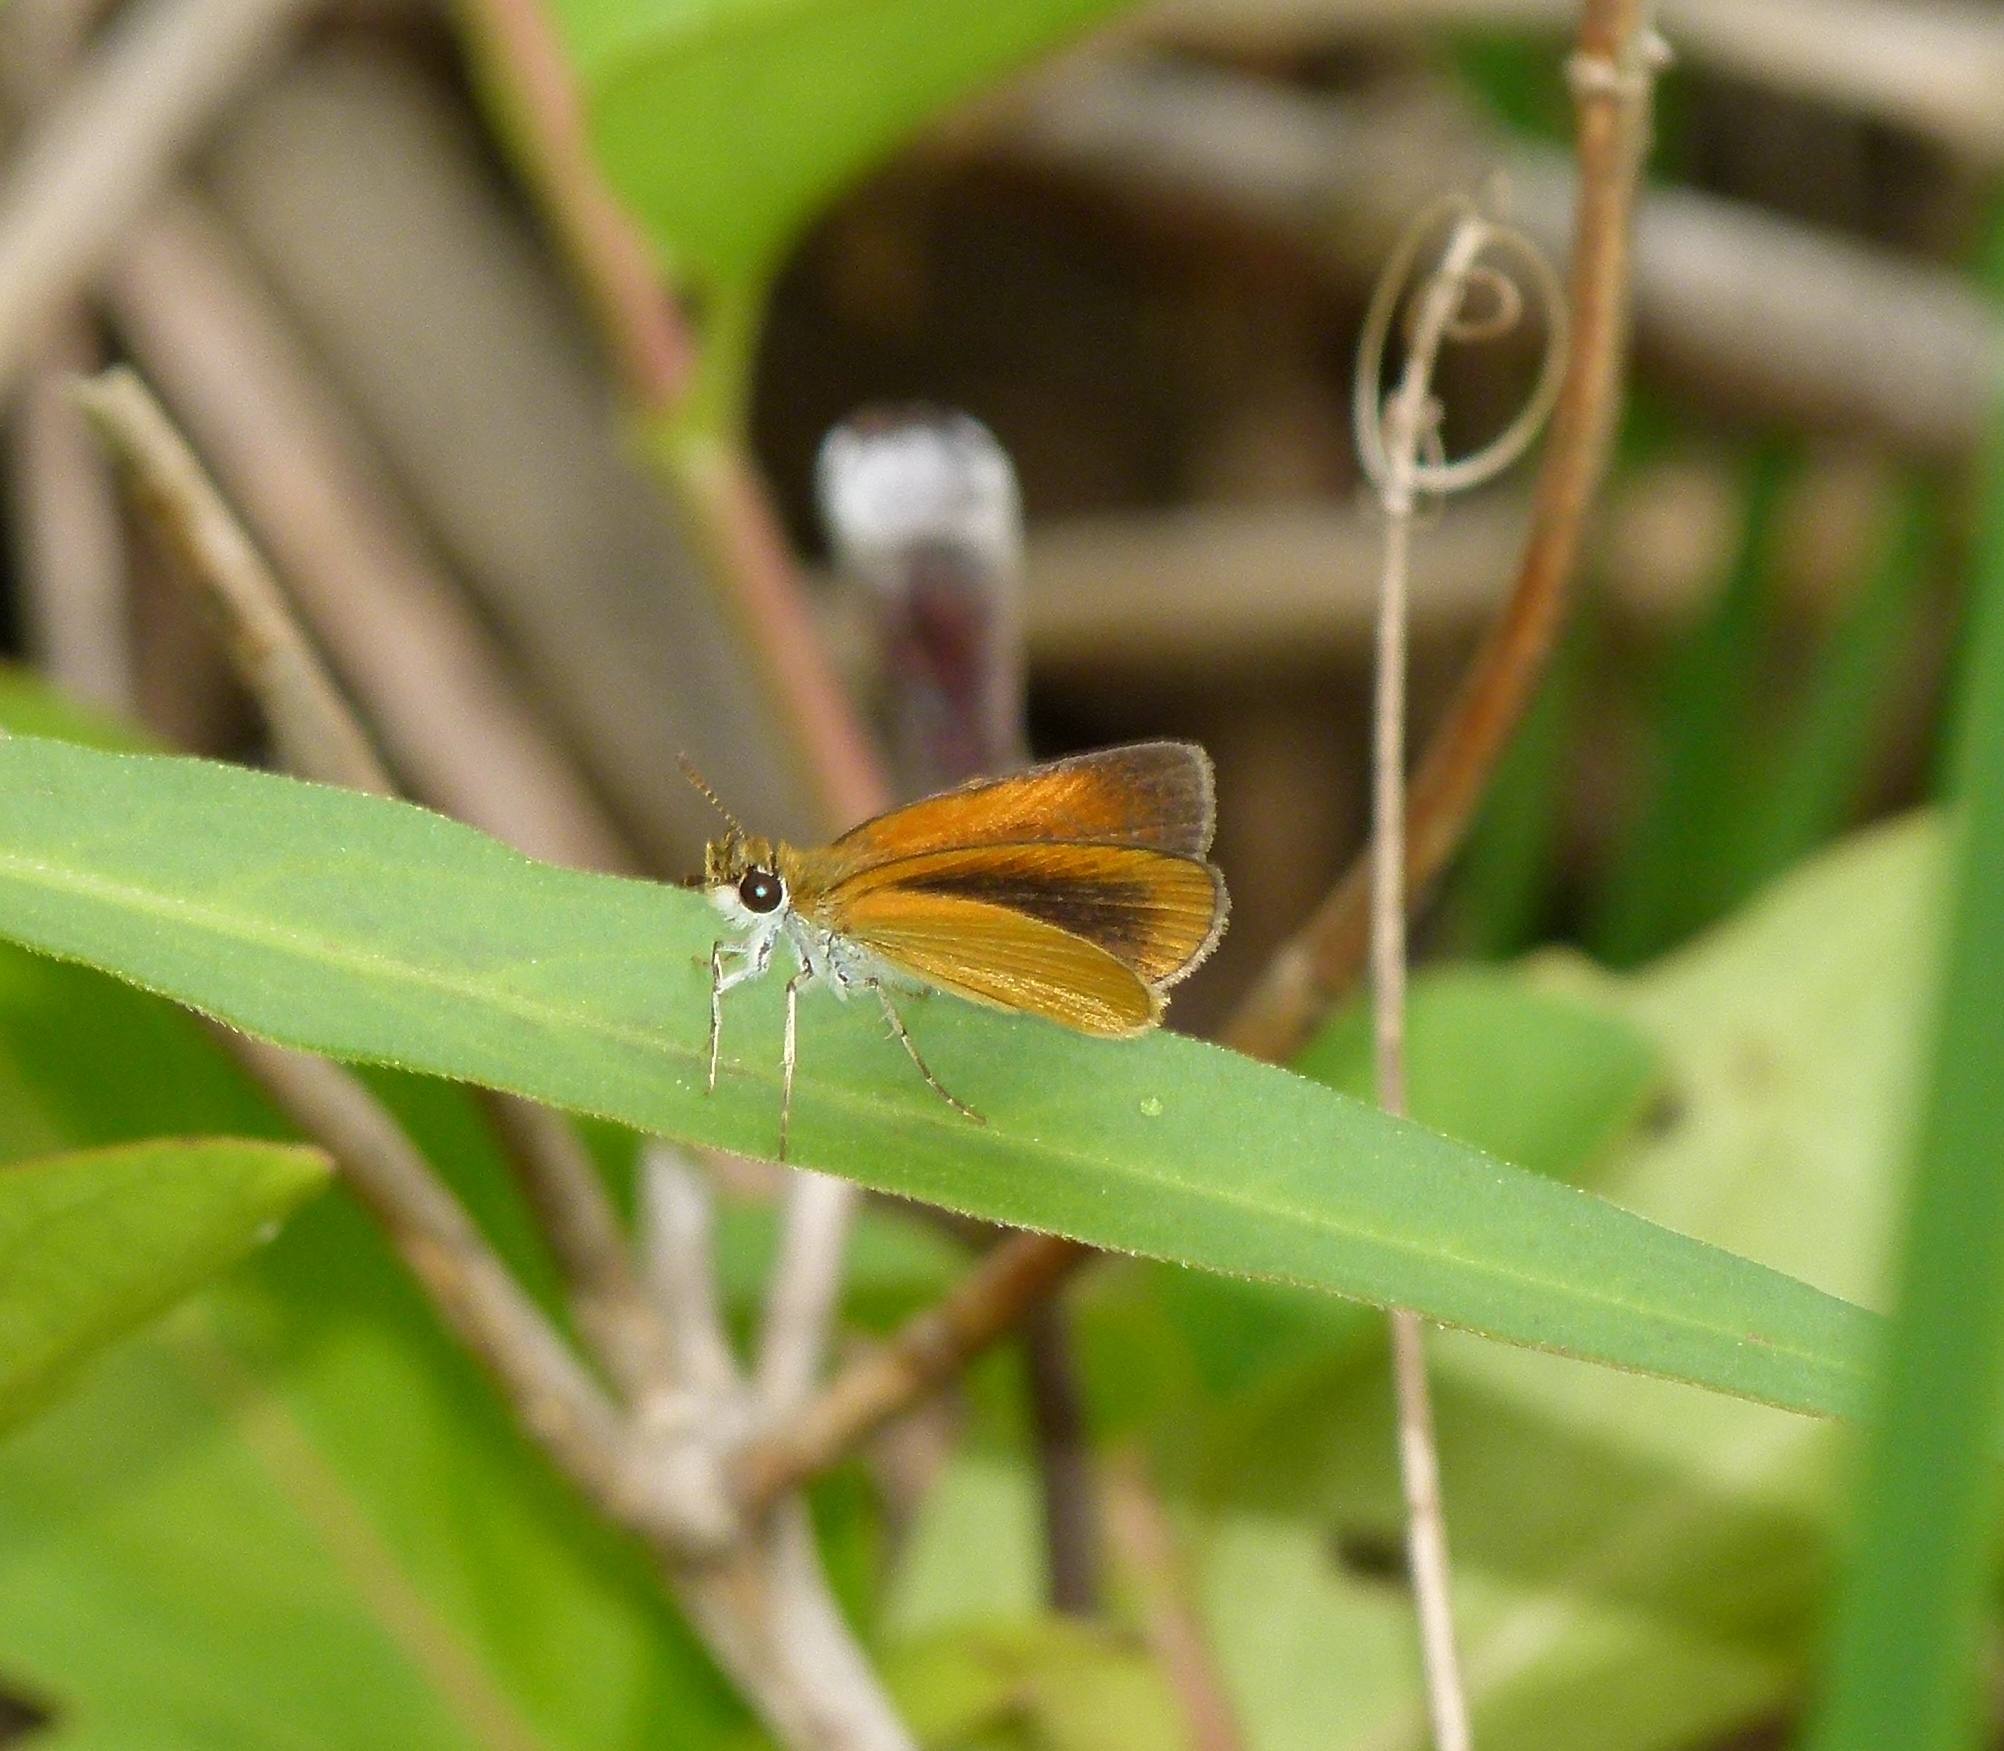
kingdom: Animalia
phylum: Arthropoda
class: Insecta
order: Lepidoptera
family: Hesperiidae
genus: Ancyloxypha
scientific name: Ancyloxypha numitor
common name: Least skipper
